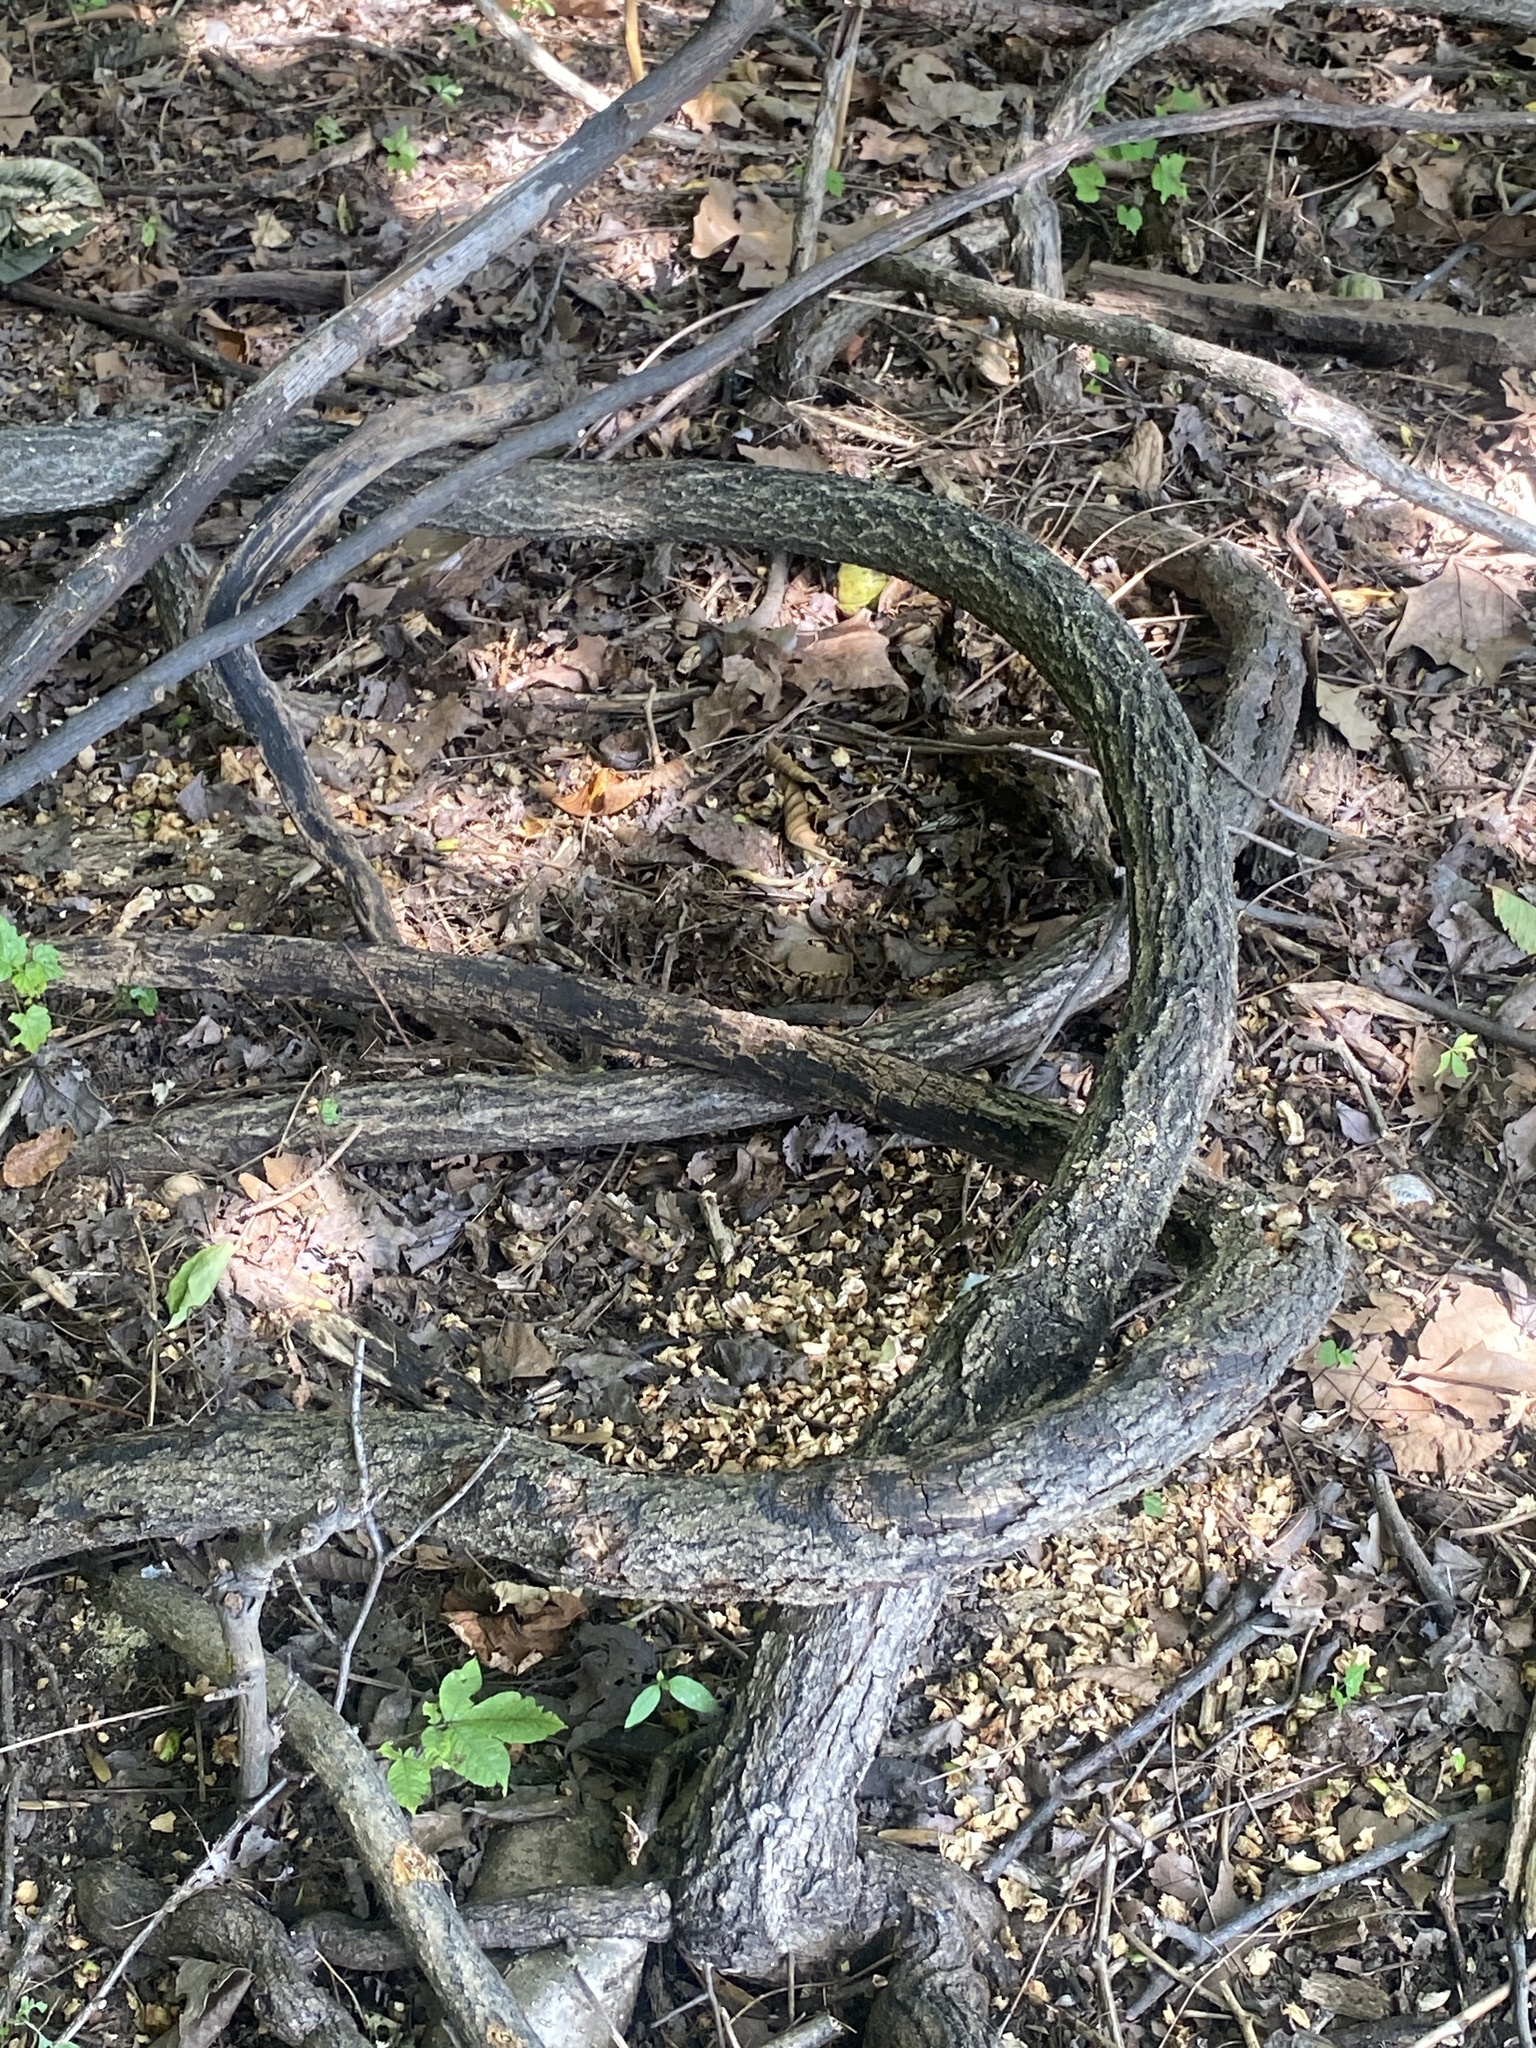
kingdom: Plantae
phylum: Tracheophyta
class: Magnoliopsida
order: Celastrales
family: Celastraceae
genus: Celastrus
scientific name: Celastrus orbiculatus
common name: Oriental bittersweet
